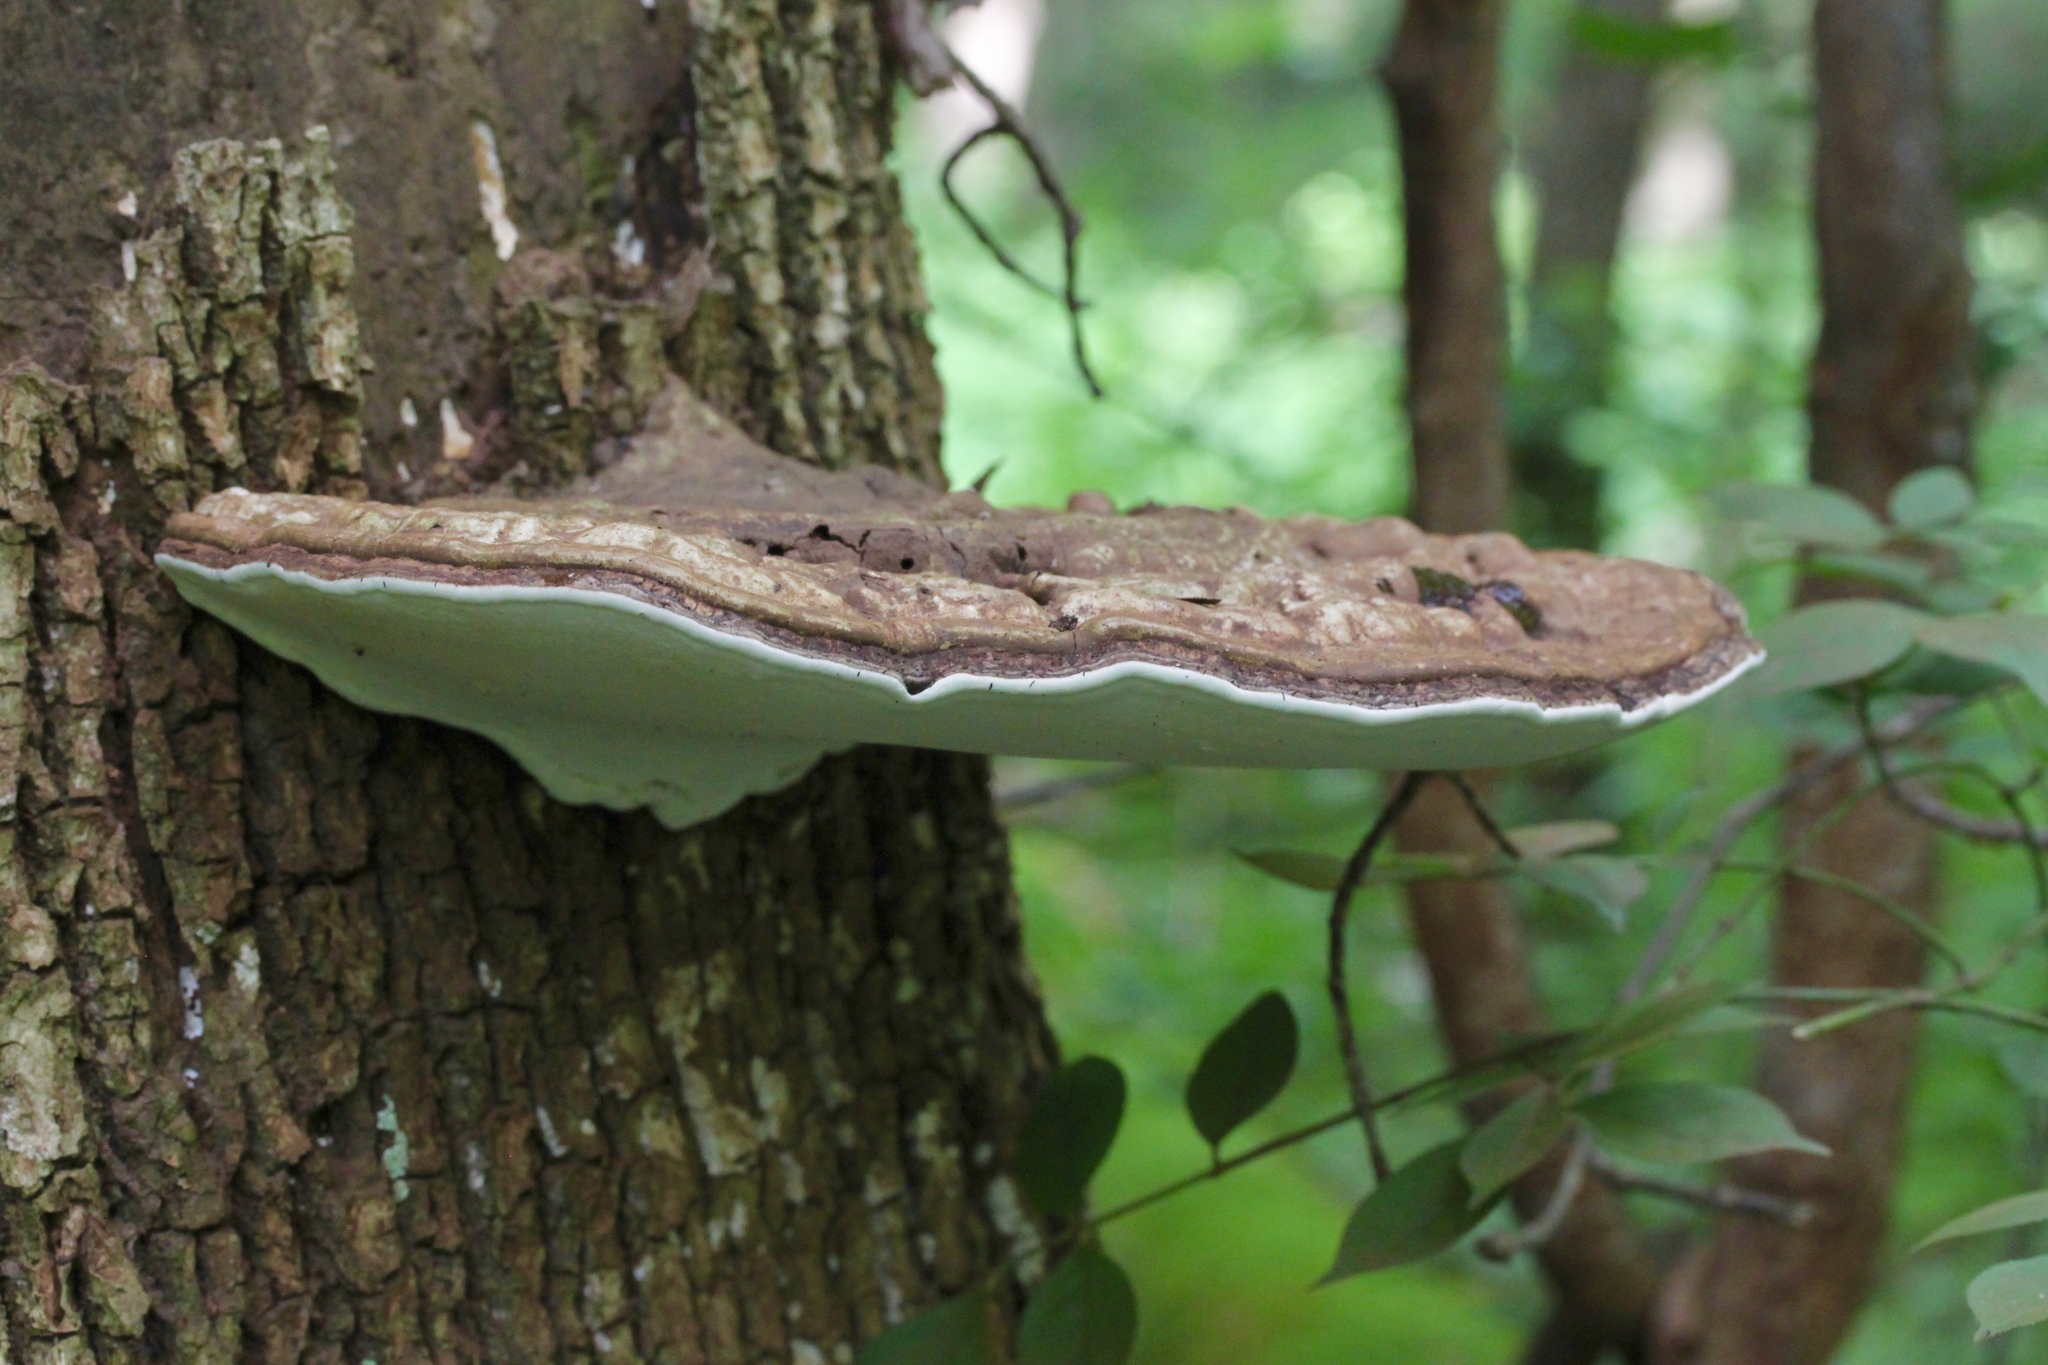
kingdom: Fungi
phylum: Basidiomycota
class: Agaricomycetes
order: Polyporales
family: Polyporaceae
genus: Ganoderma
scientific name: Ganoderma applanatum
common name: Artist's bracket
